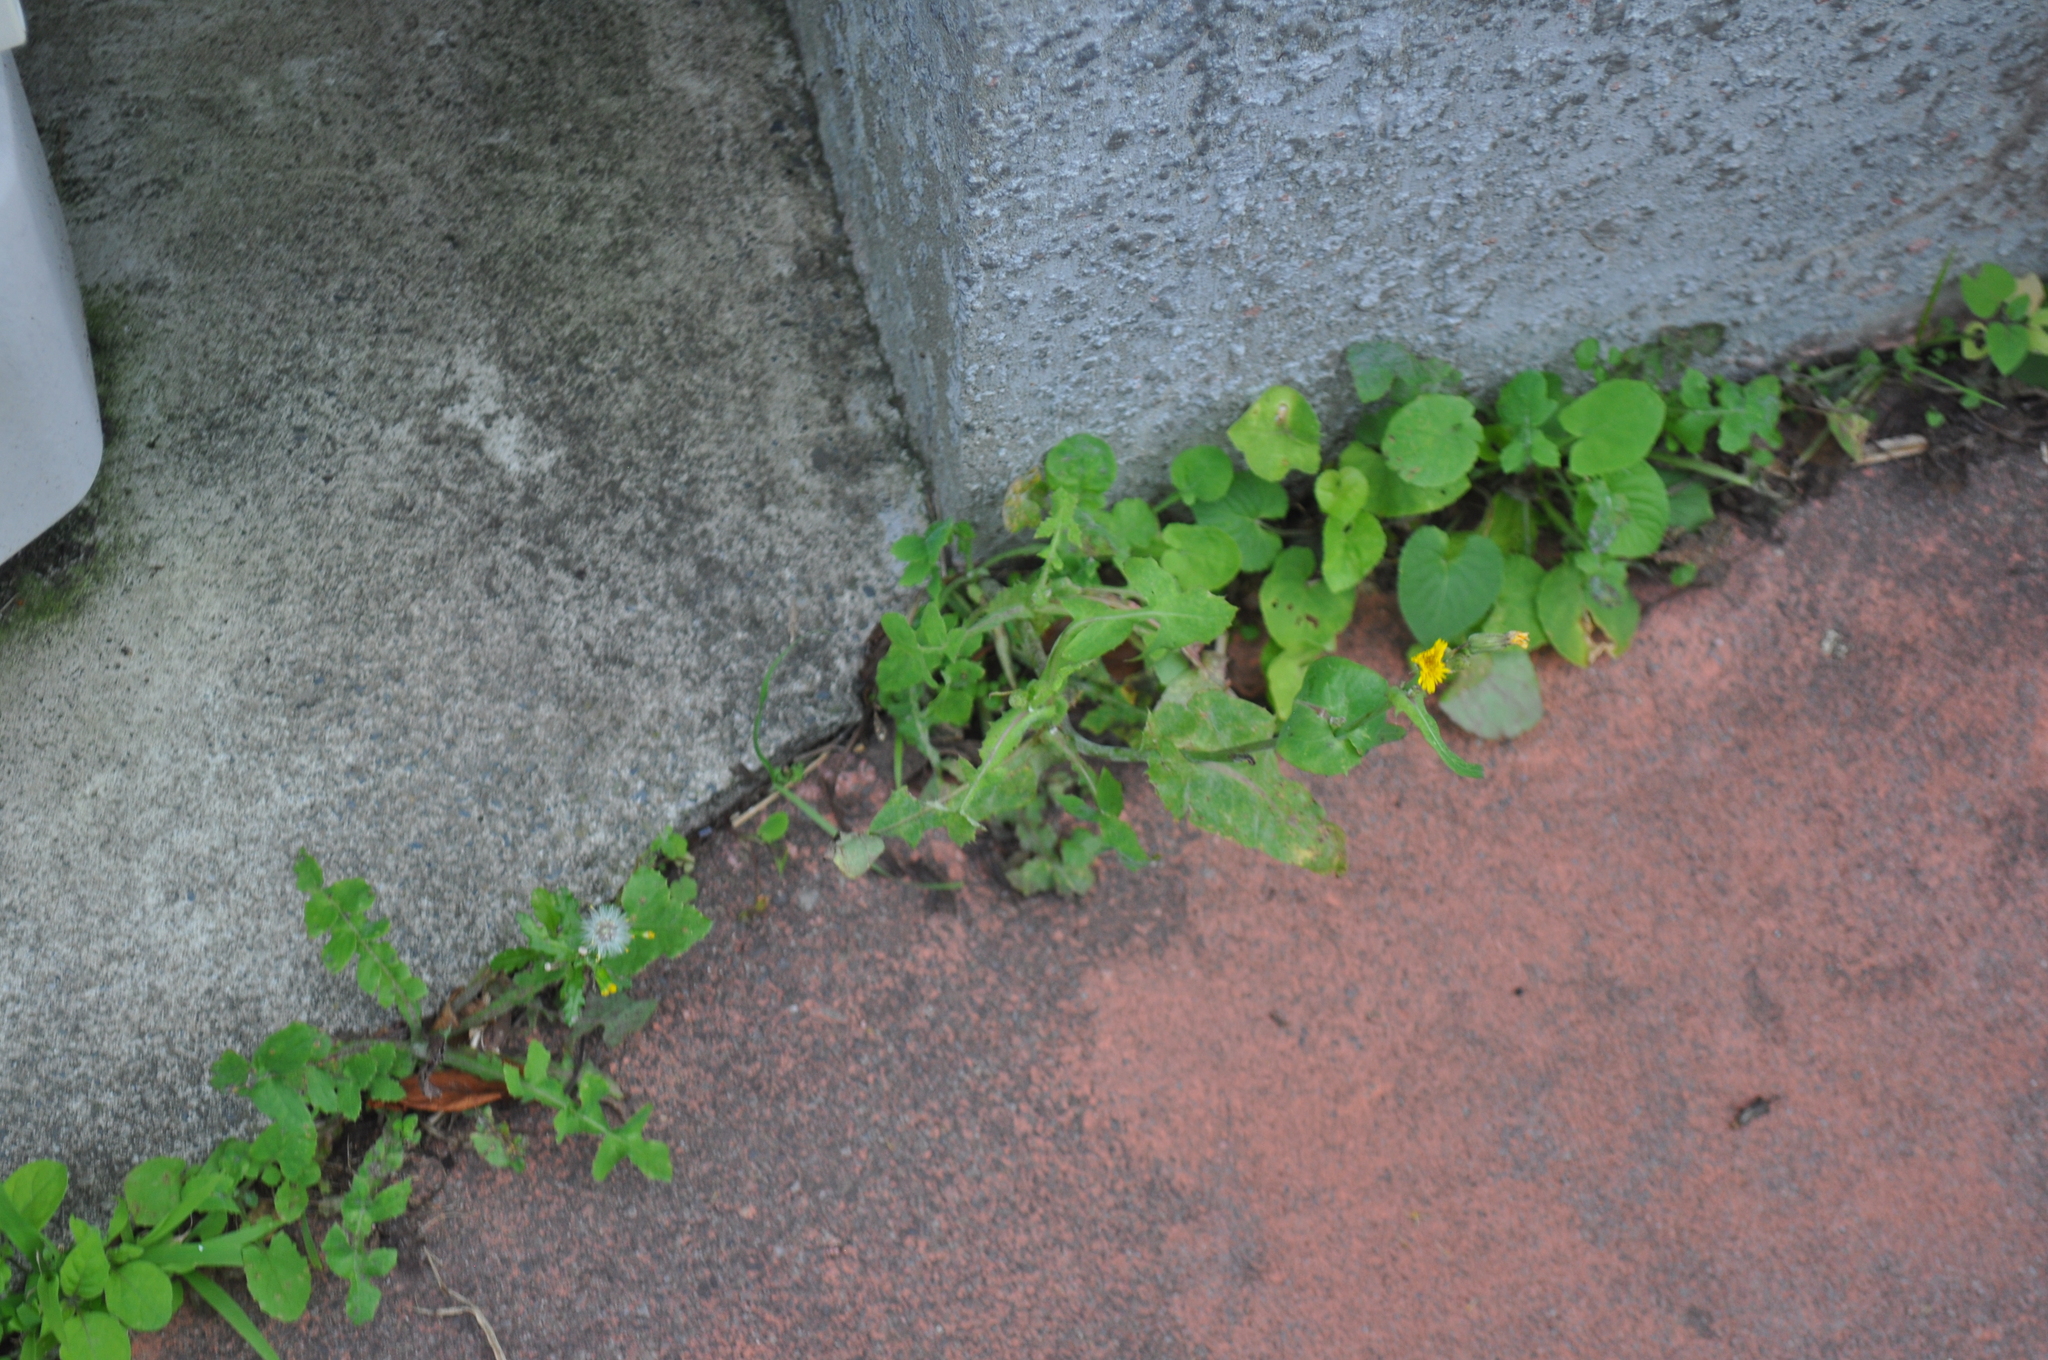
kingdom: Plantae
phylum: Tracheophyta
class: Magnoliopsida
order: Asterales
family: Asteraceae
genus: Sonchus
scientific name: Sonchus oleraceus
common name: Common sowthistle
